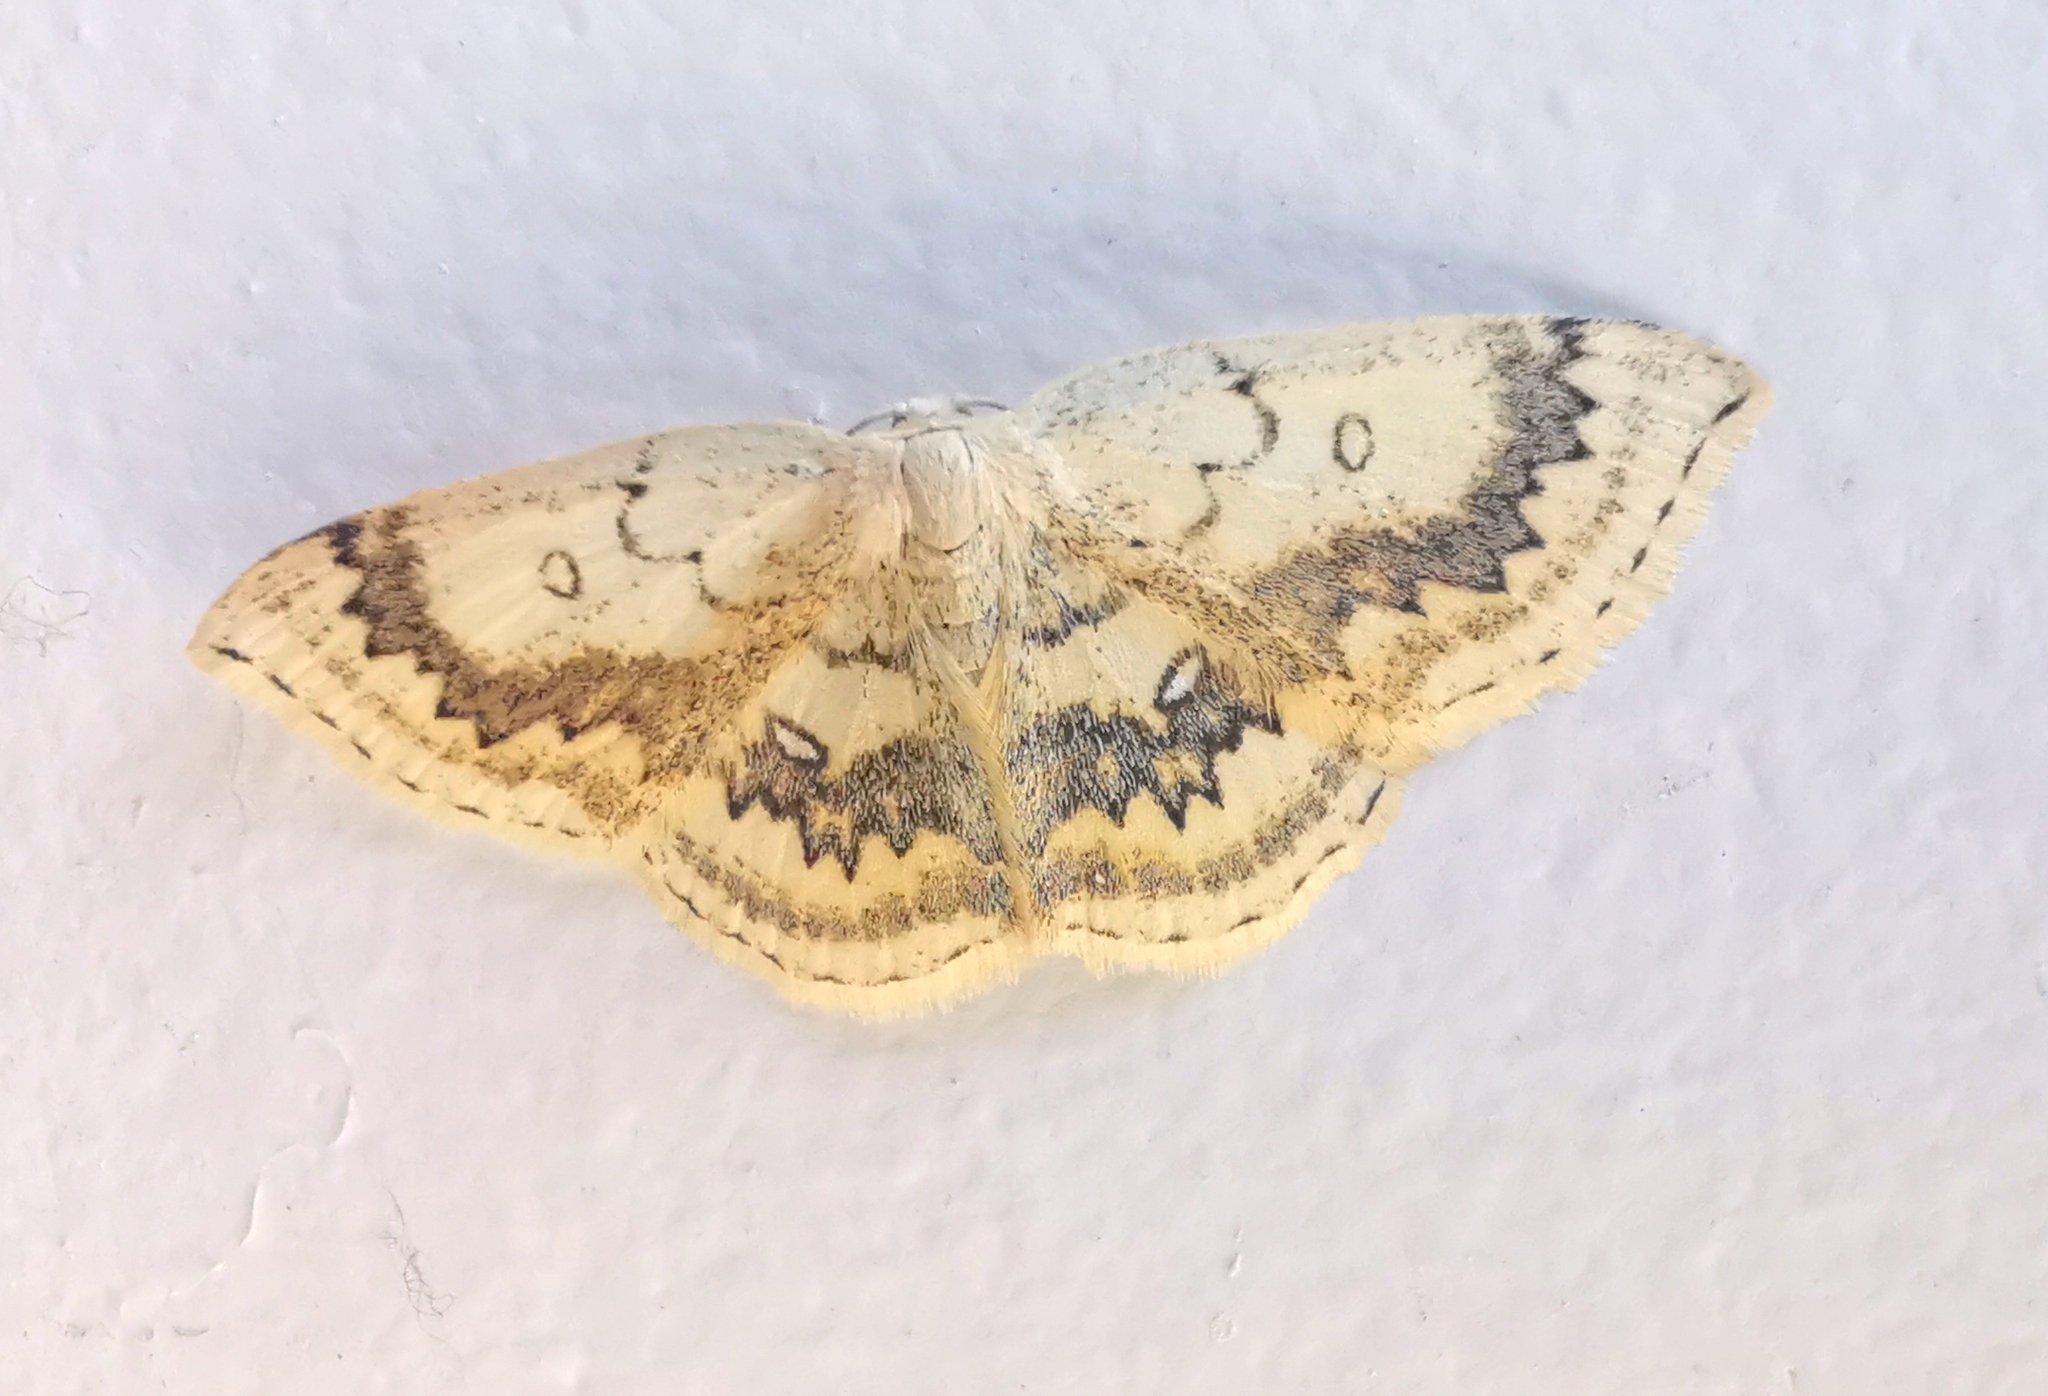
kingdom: Animalia
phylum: Arthropoda
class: Insecta
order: Lepidoptera
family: Geometridae
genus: Cyclophora
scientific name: Cyclophora annularia
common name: Mocha
